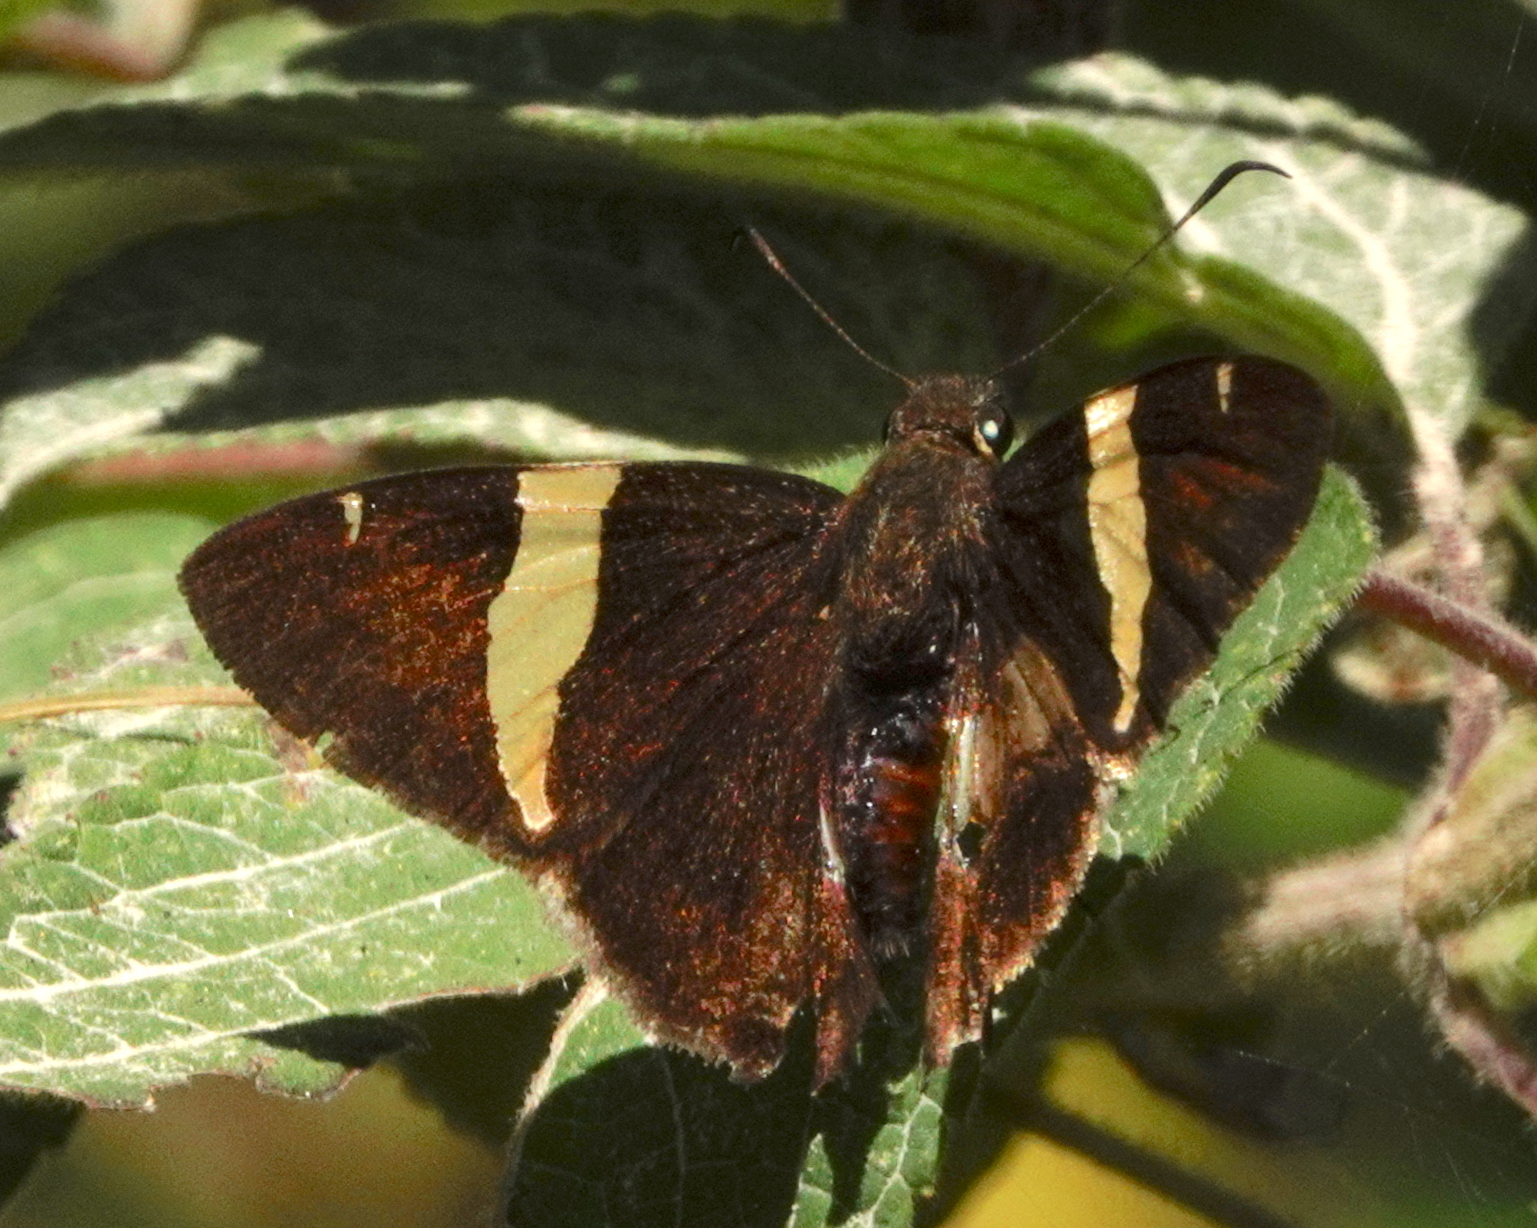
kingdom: Animalia
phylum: Arthropoda
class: Insecta
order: Lepidoptera
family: Hesperiidae
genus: Autochton
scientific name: Autochton vectilucis
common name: Central american banded-skipper
